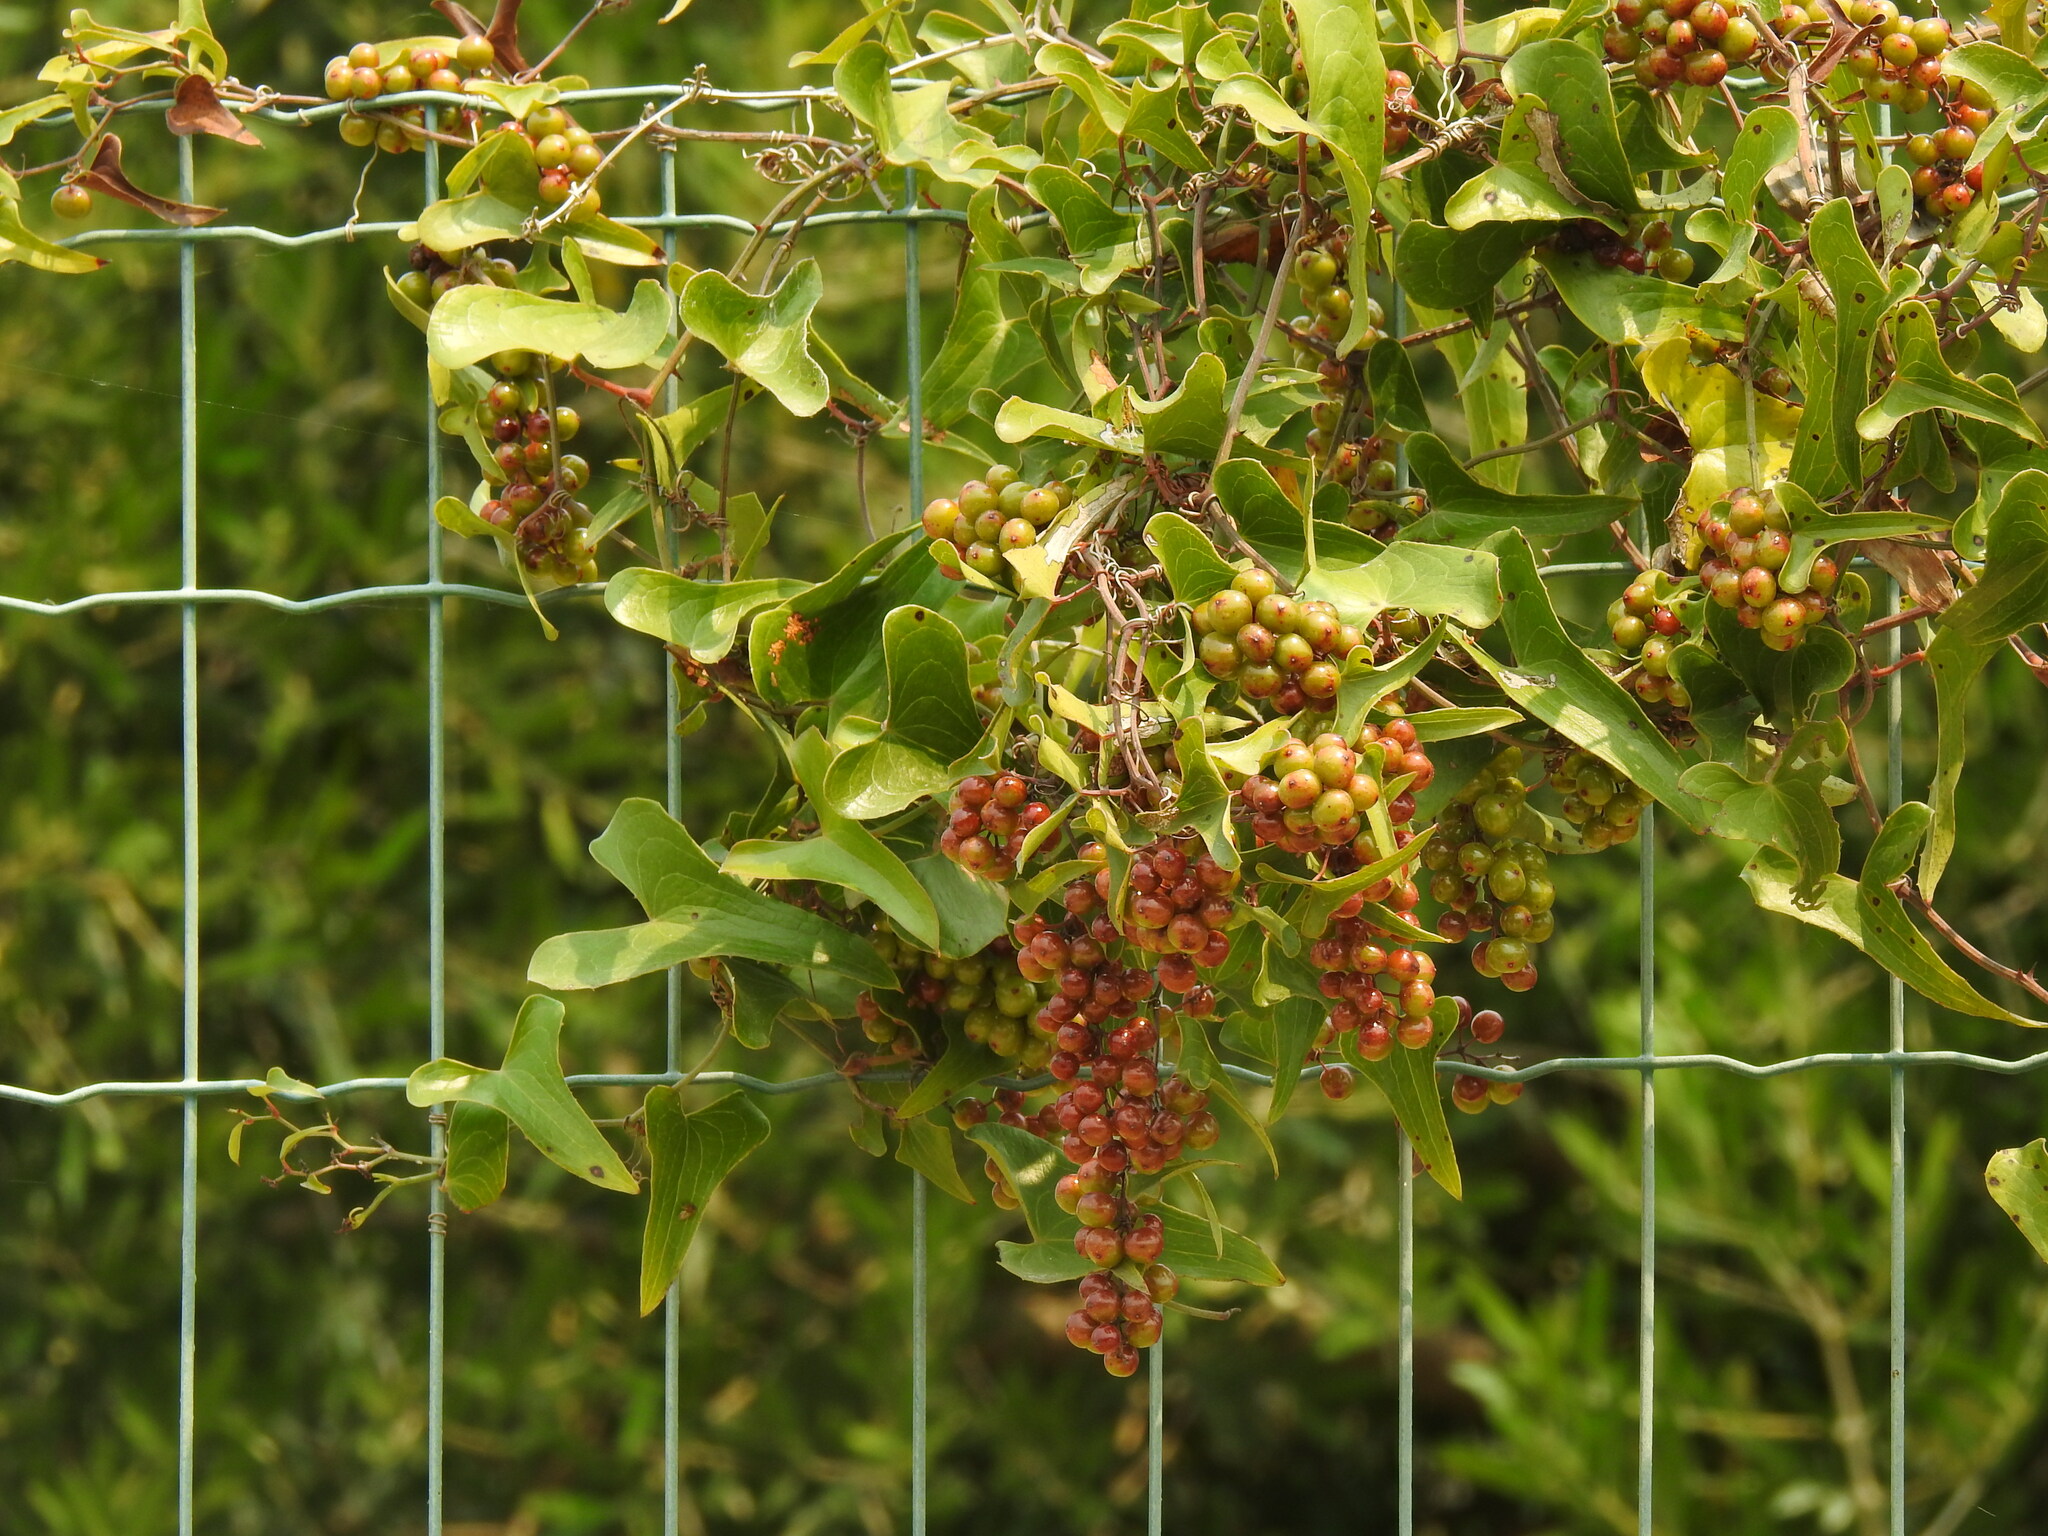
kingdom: Plantae
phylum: Tracheophyta
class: Liliopsida
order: Liliales
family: Smilacaceae
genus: Smilax
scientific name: Smilax aspera
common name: Common smilax
